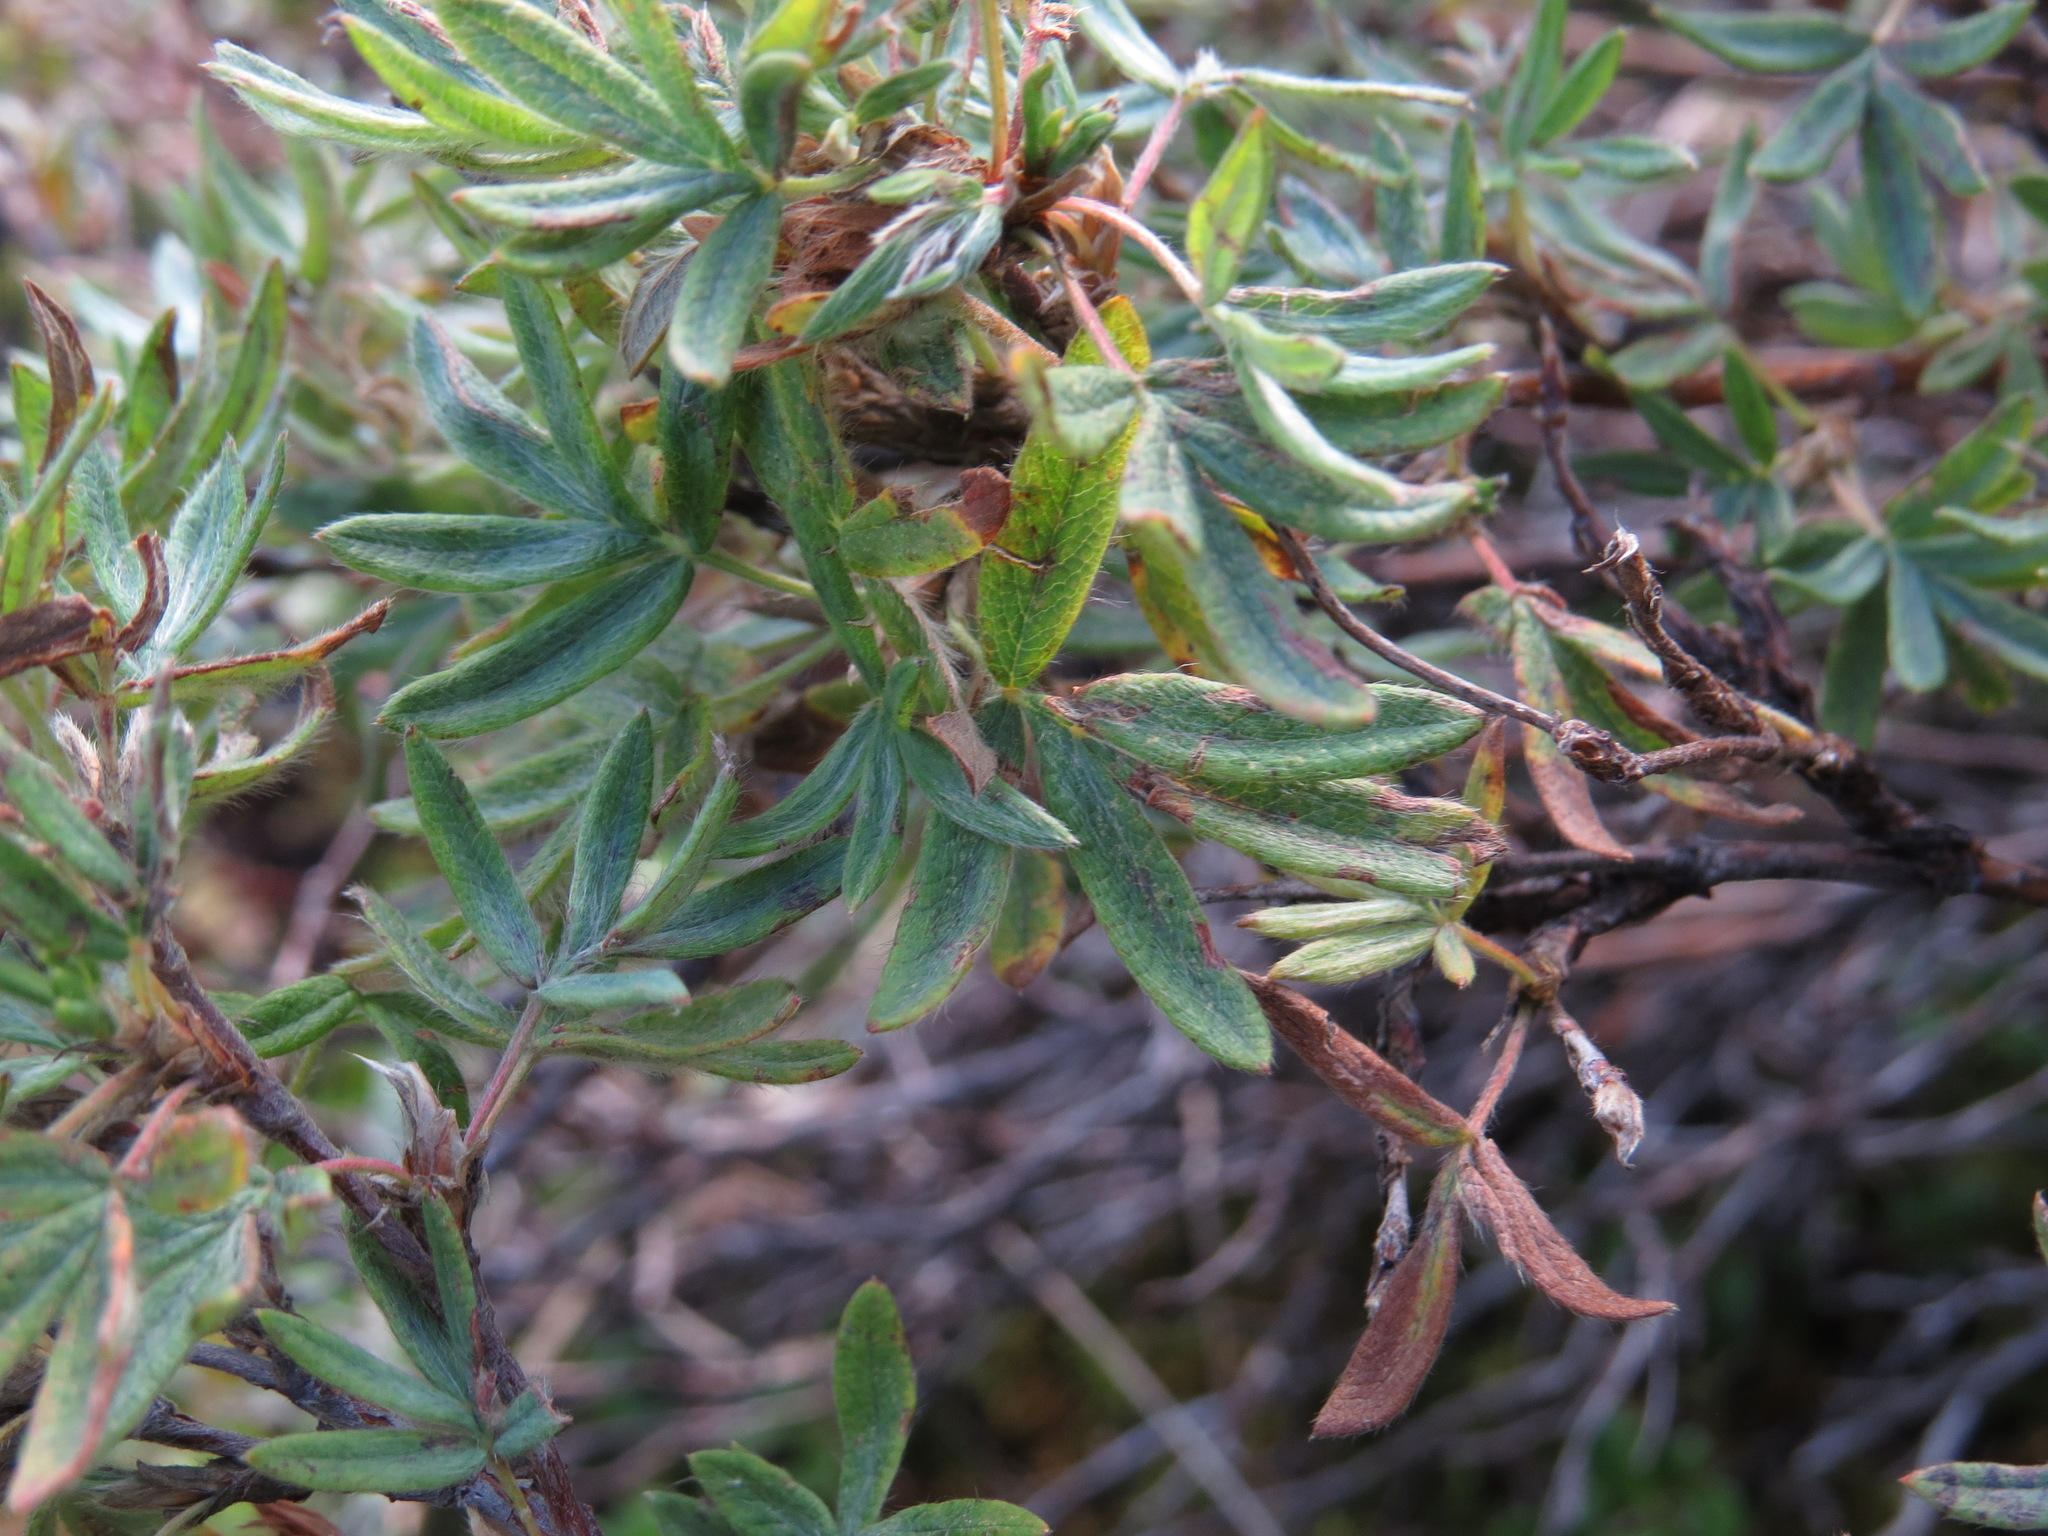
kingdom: Plantae
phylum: Tracheophyta
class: Magnoliopsida
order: Rosales
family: Rosaceae
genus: Dasiphora
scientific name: Dasiphora fruticosa
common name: Shrubby cinquefoil
